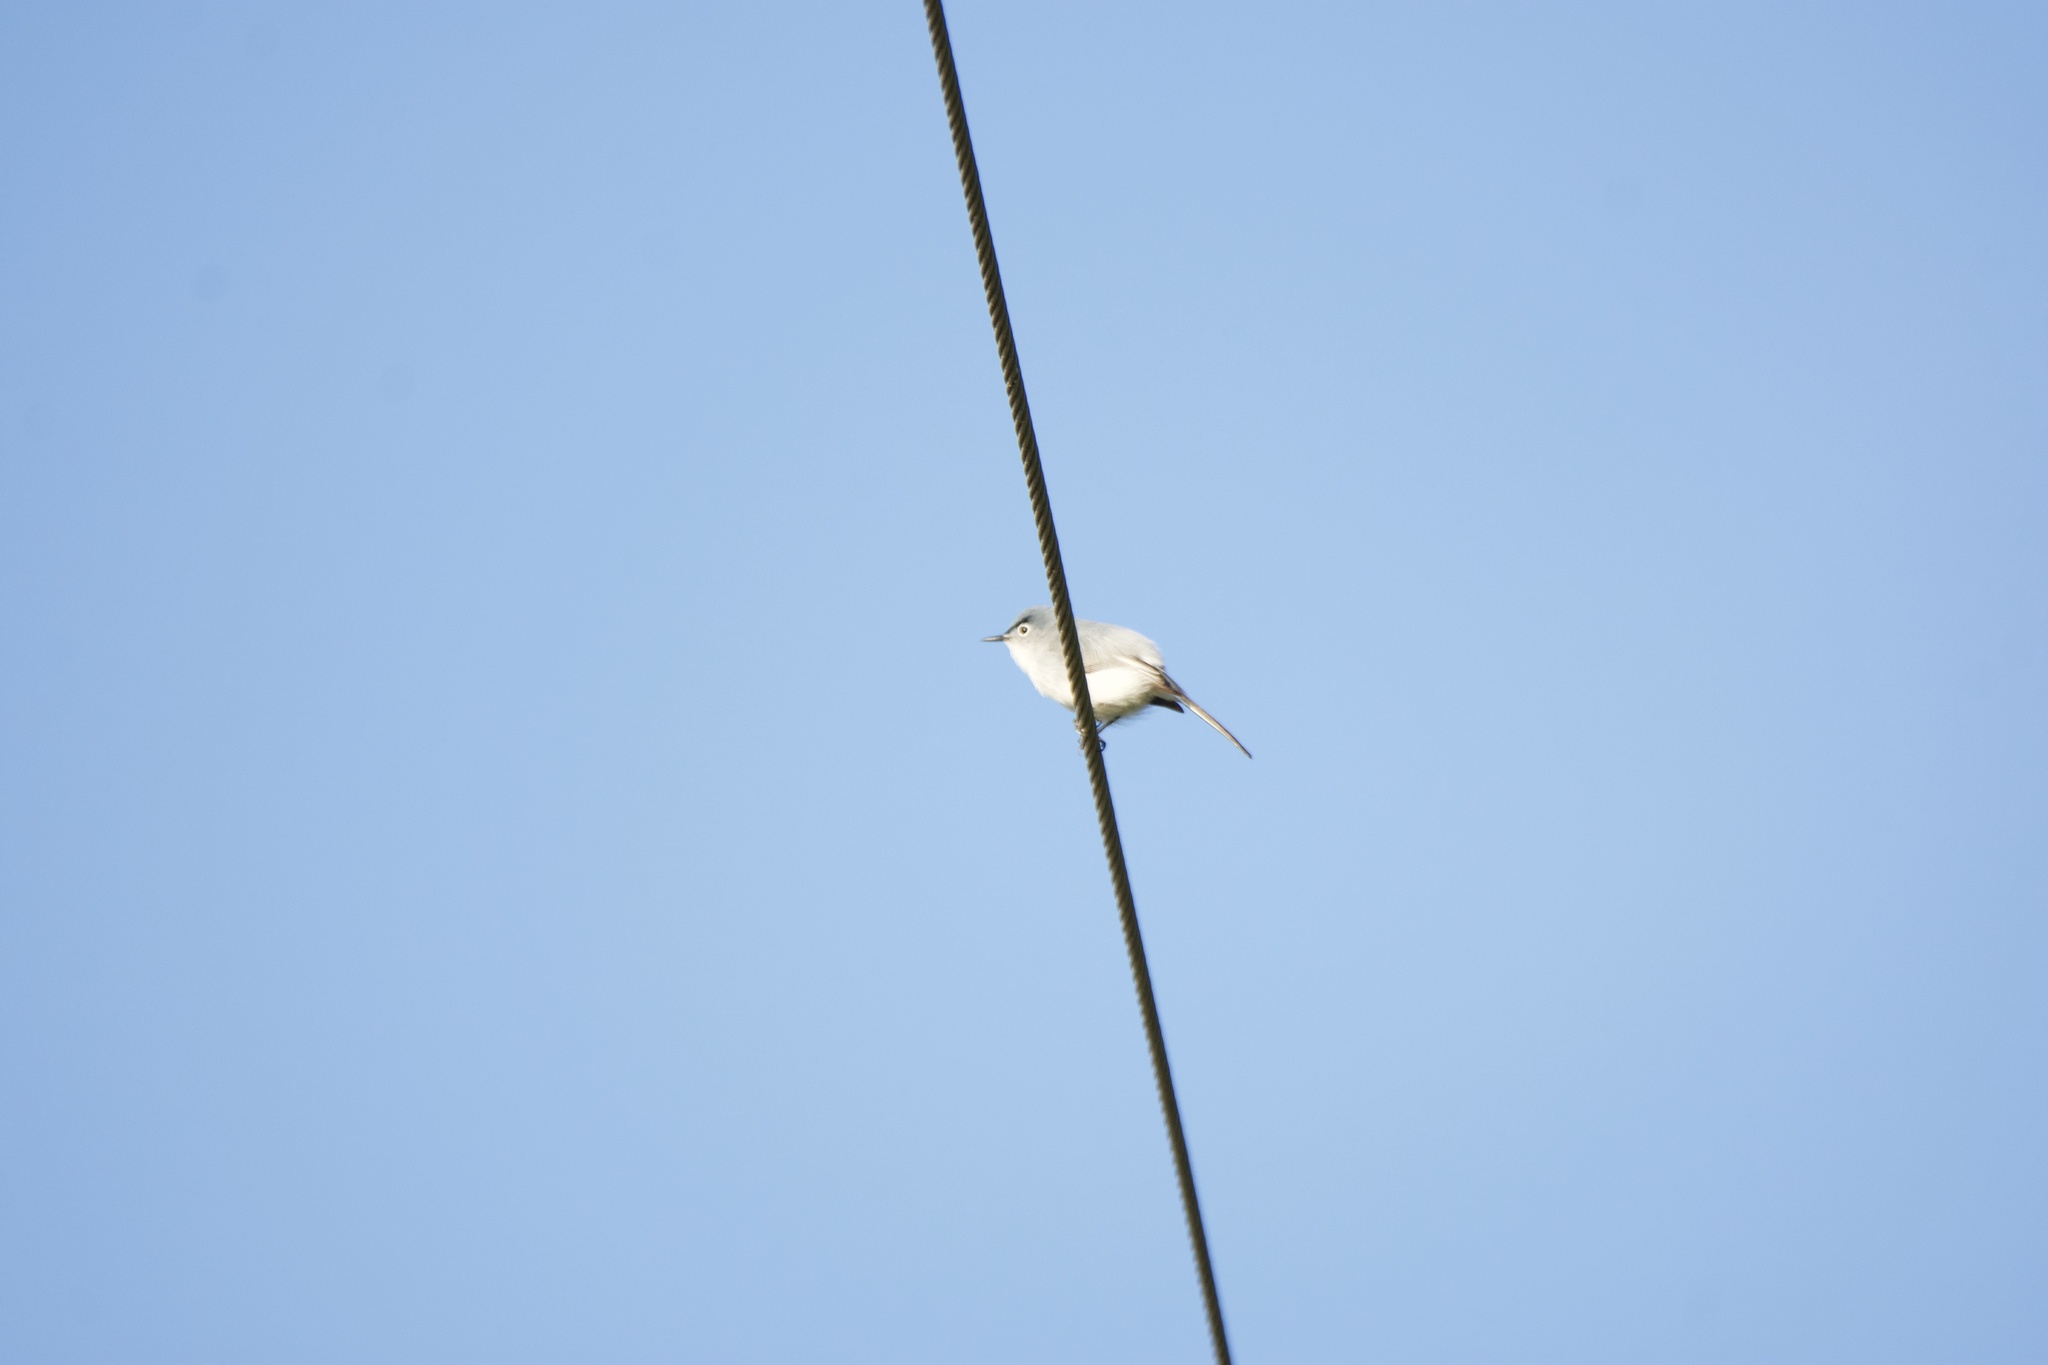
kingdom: Animalia
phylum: Chordata
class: Aves
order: Passeriformes
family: Polioptilidae
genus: Polioptila
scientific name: Polioptila caerulea
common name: Blue-gray gnatcatcher
